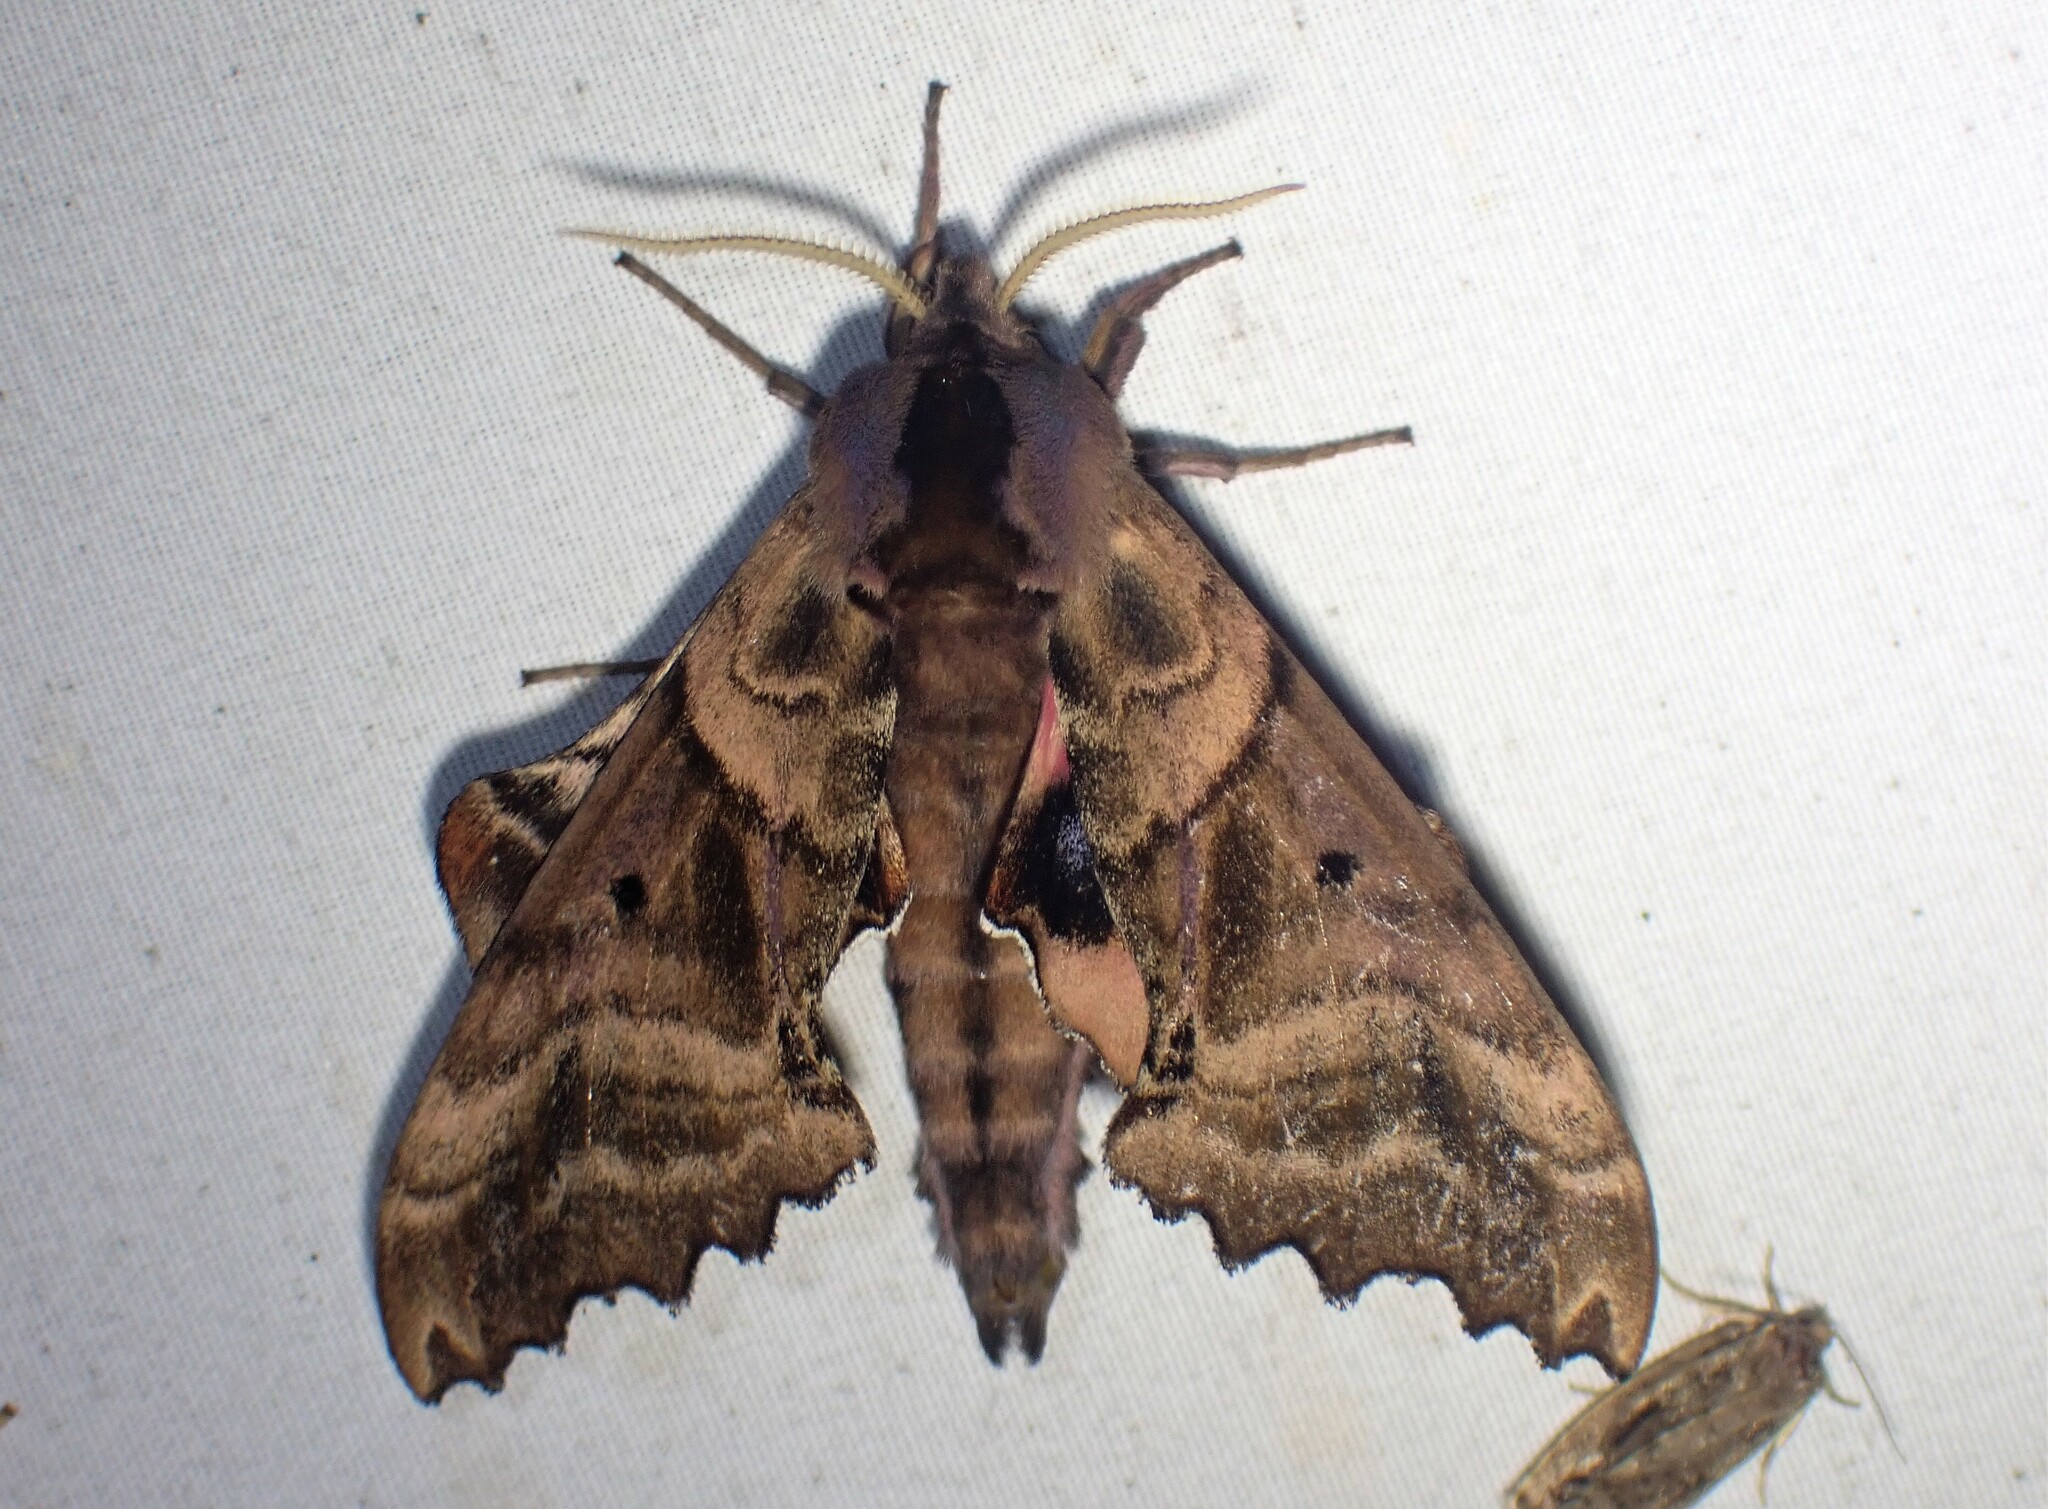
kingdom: Animalia
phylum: Arthropoda
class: Insecta
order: Lepidoptera
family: Sphingidae
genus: Paonias
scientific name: Paonias excaecata
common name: Blind-eyed sphinx
